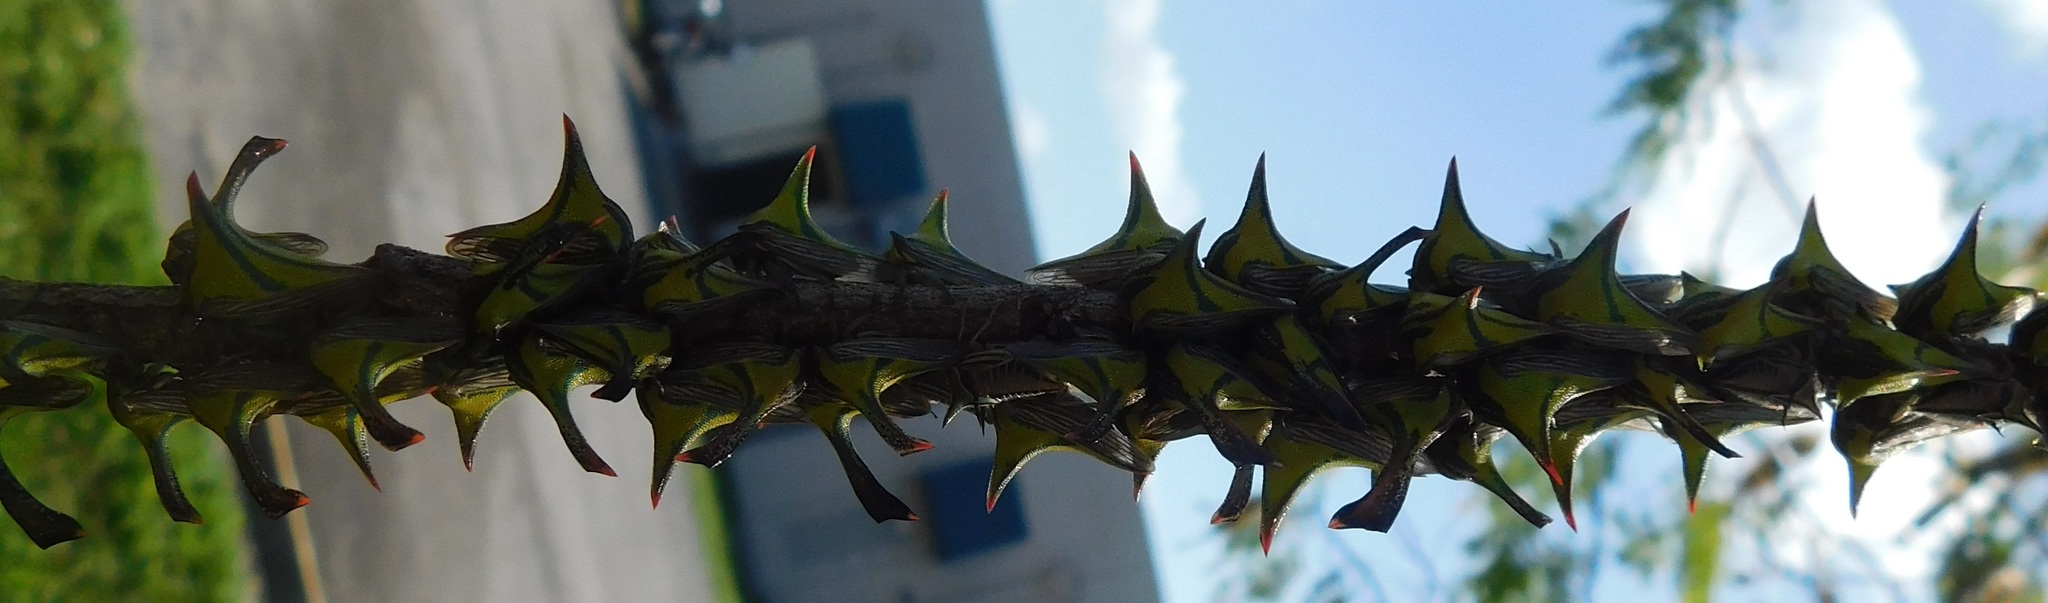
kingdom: Animalia
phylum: Arthropoda
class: Insecta
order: Hemiptera
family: Membracidae
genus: Umbonia
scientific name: Umbonia crassicornis
